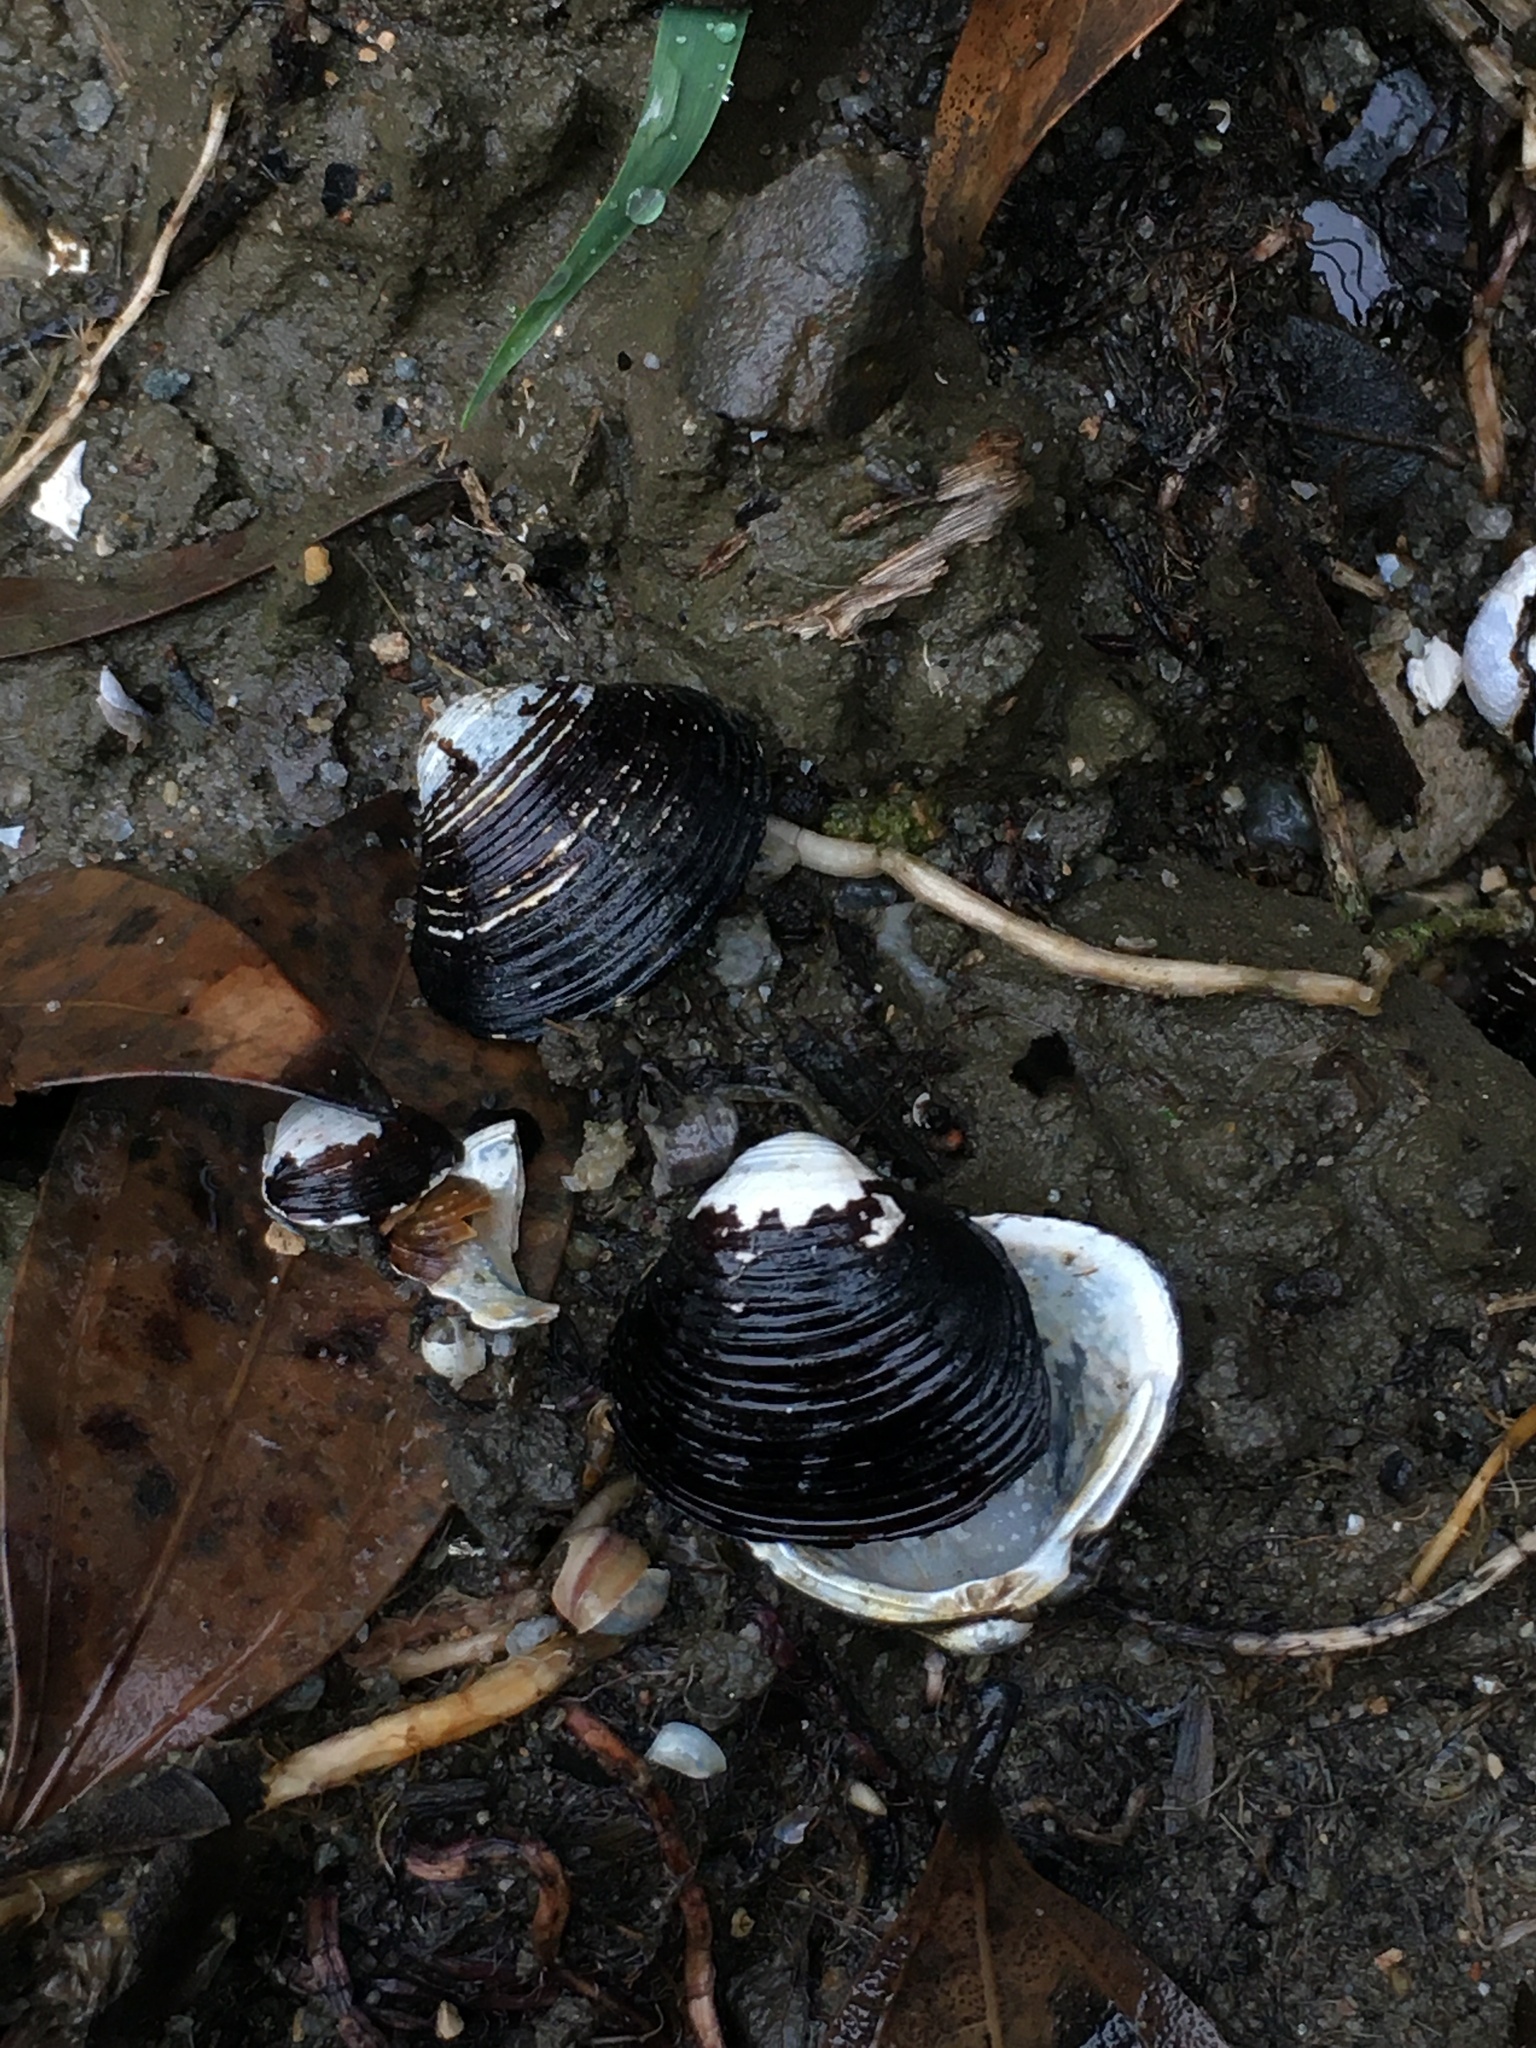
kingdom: Animalia
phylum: Mollusca
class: Bivalvia
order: Venerida
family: Cyrenidae
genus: Corbicula
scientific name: Corbicula fluminea
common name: Asian clam
